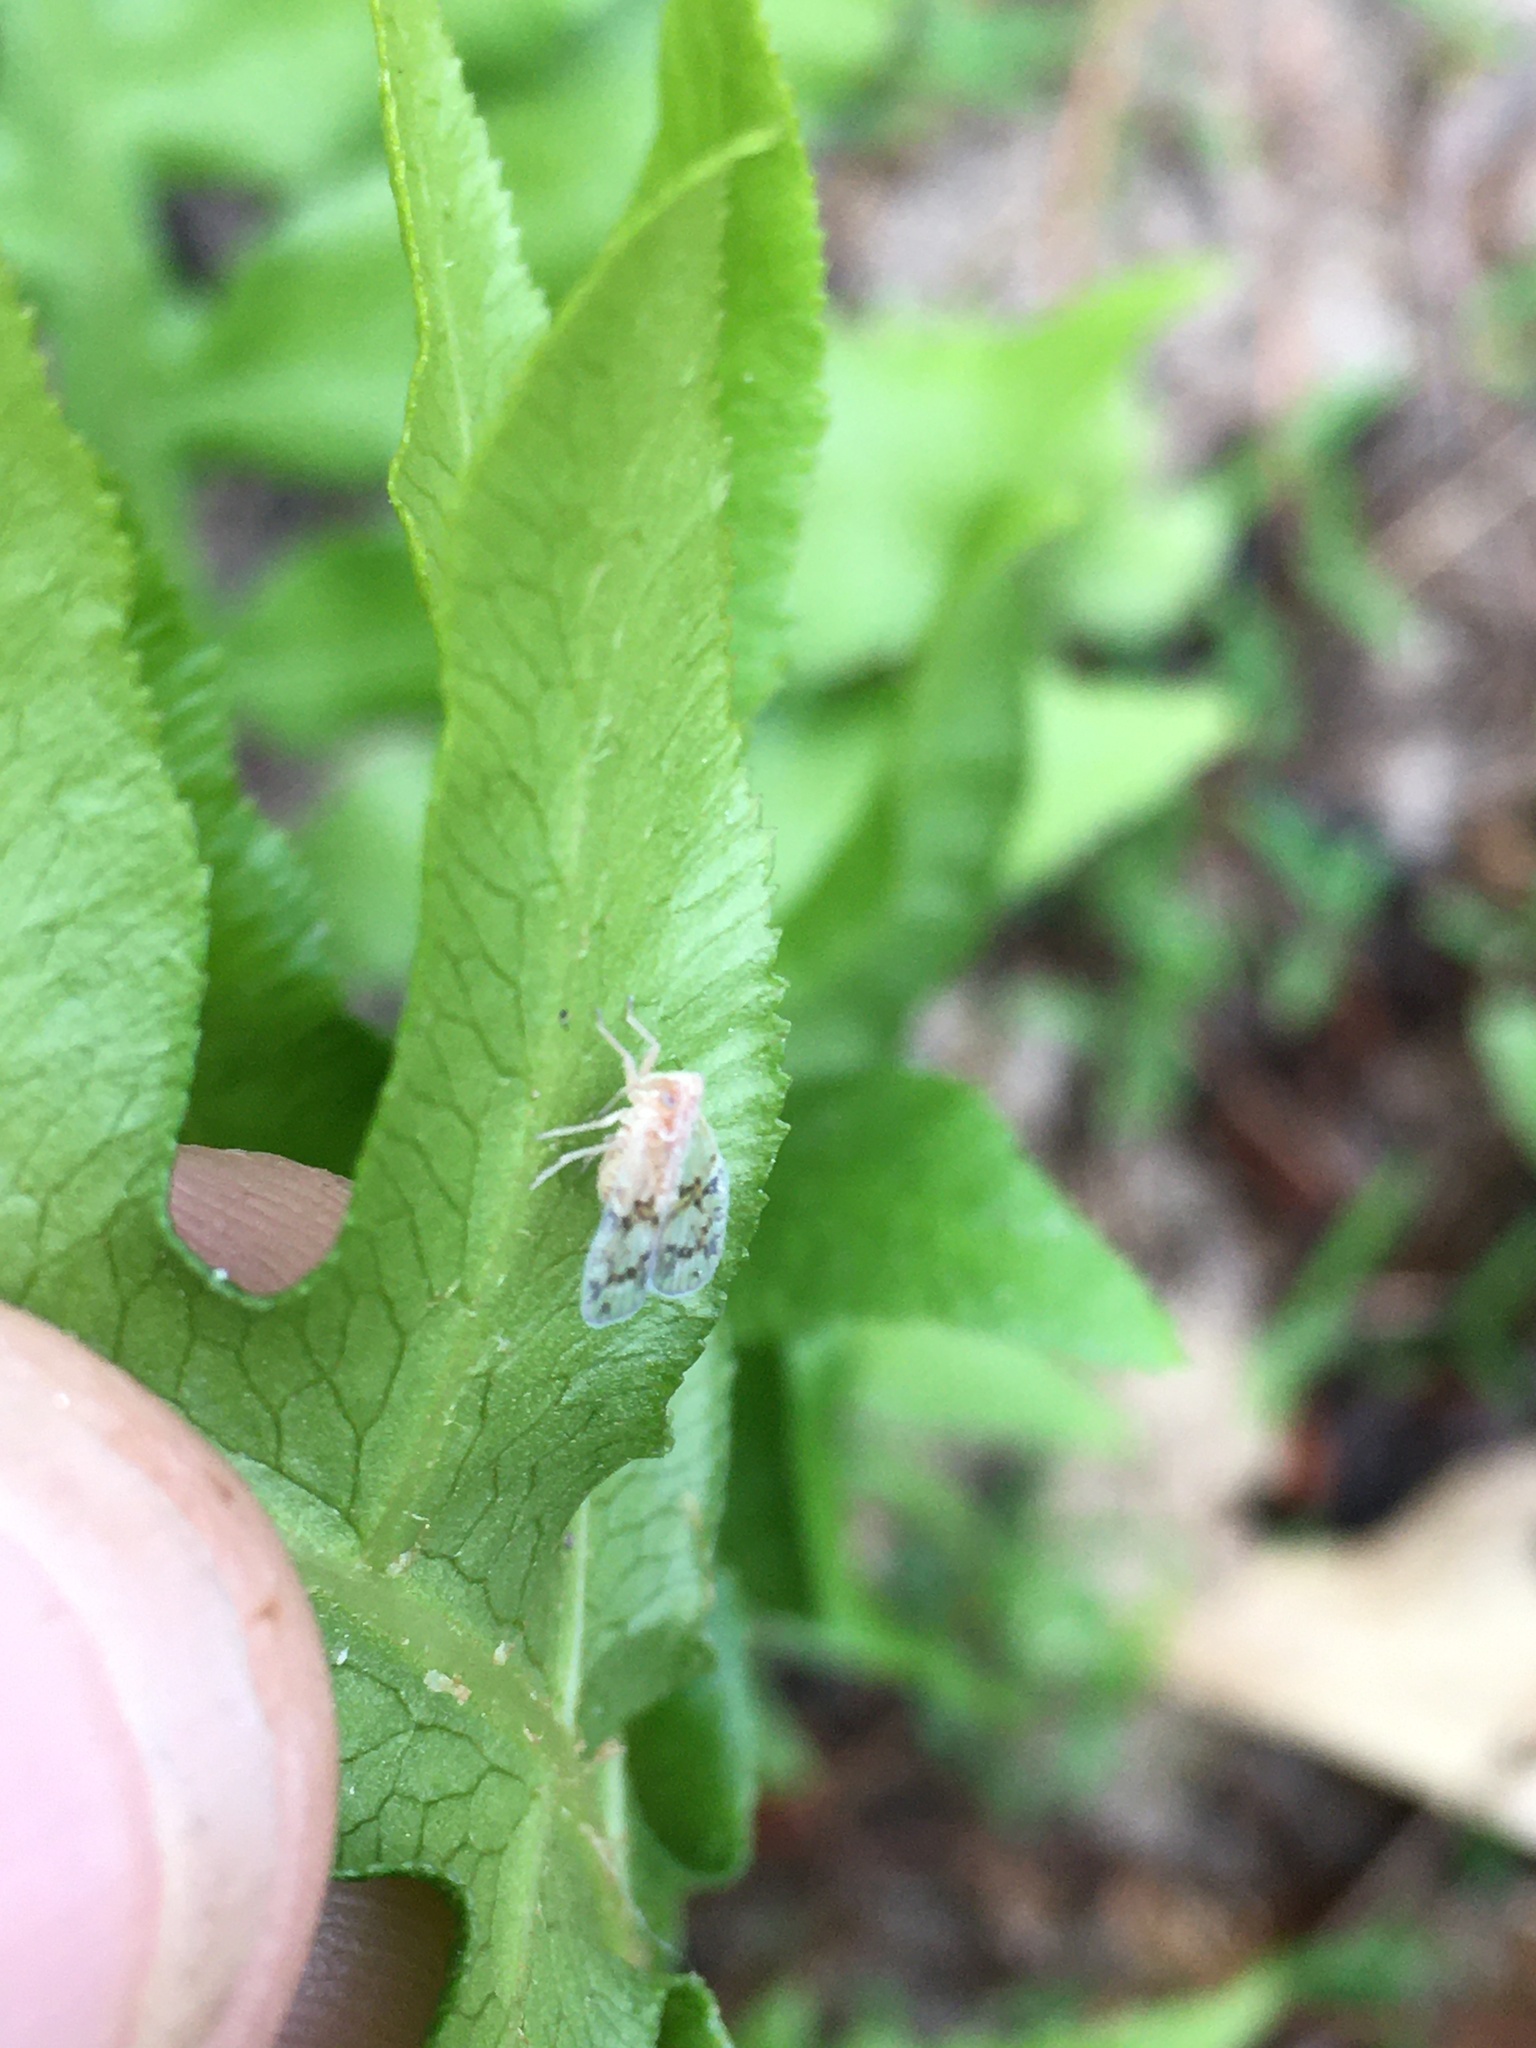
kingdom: Animalia
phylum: Arthropoda
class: Insecta
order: Hemiptera
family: Cixiidae
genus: Bothriocera
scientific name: Bothriocera drakei
